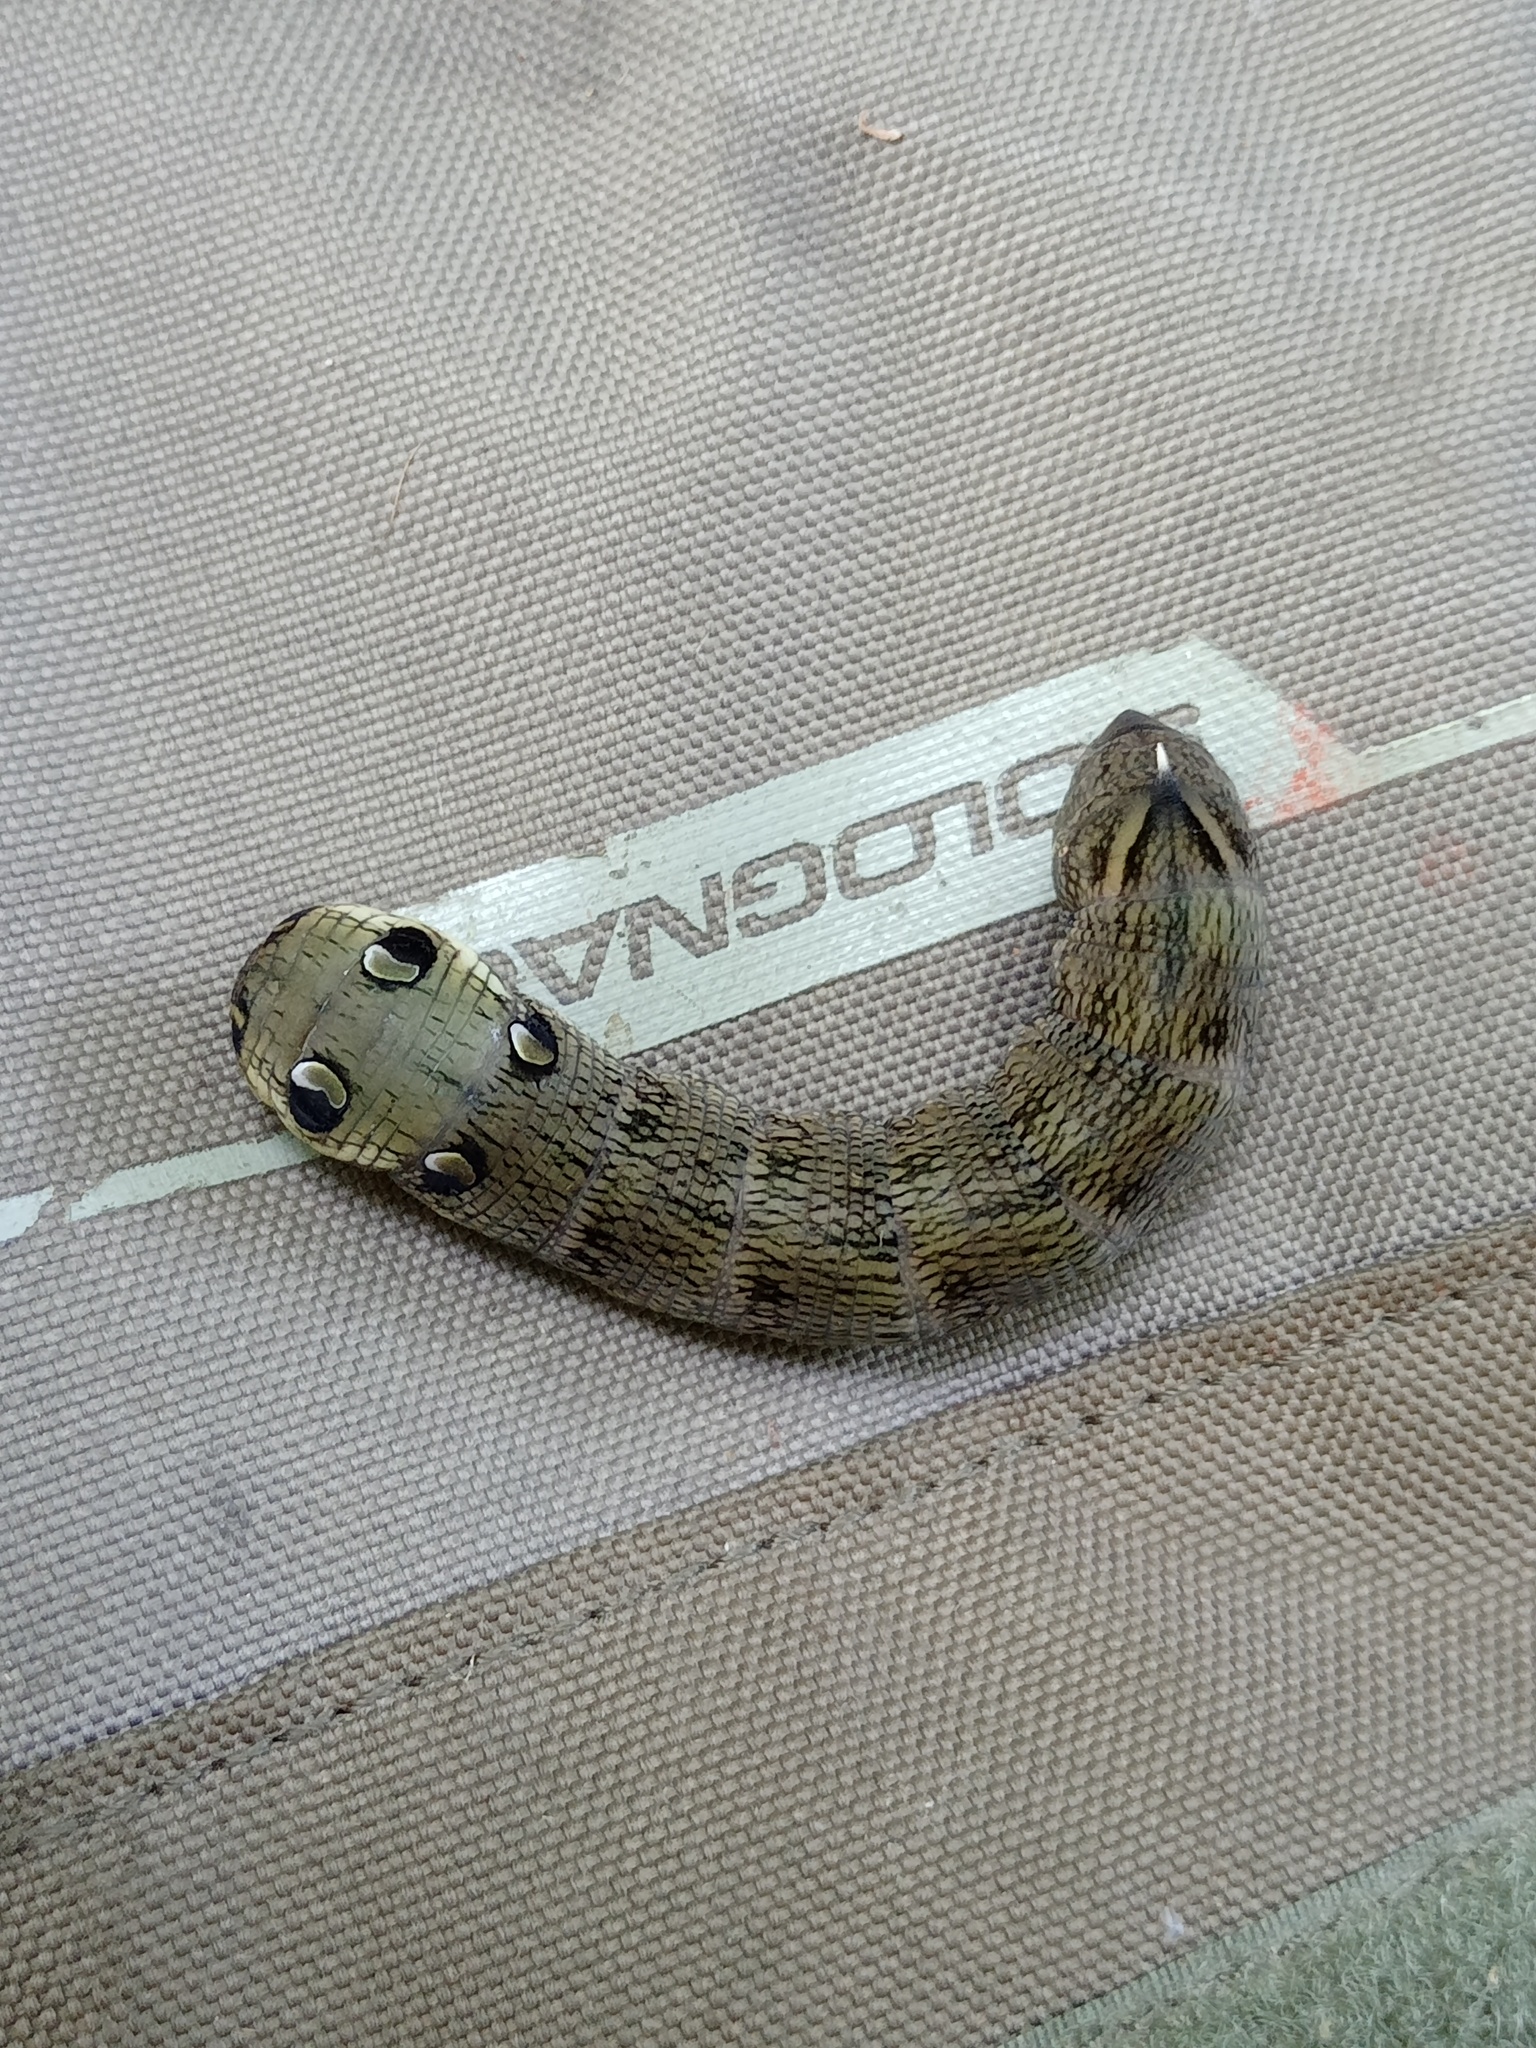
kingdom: Animalia
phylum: Arthropoda
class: Insecta
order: Lepidoptera
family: Sphingidae
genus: Deilephila
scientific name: Deilephila elpenor
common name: Elephant hawk-moth
